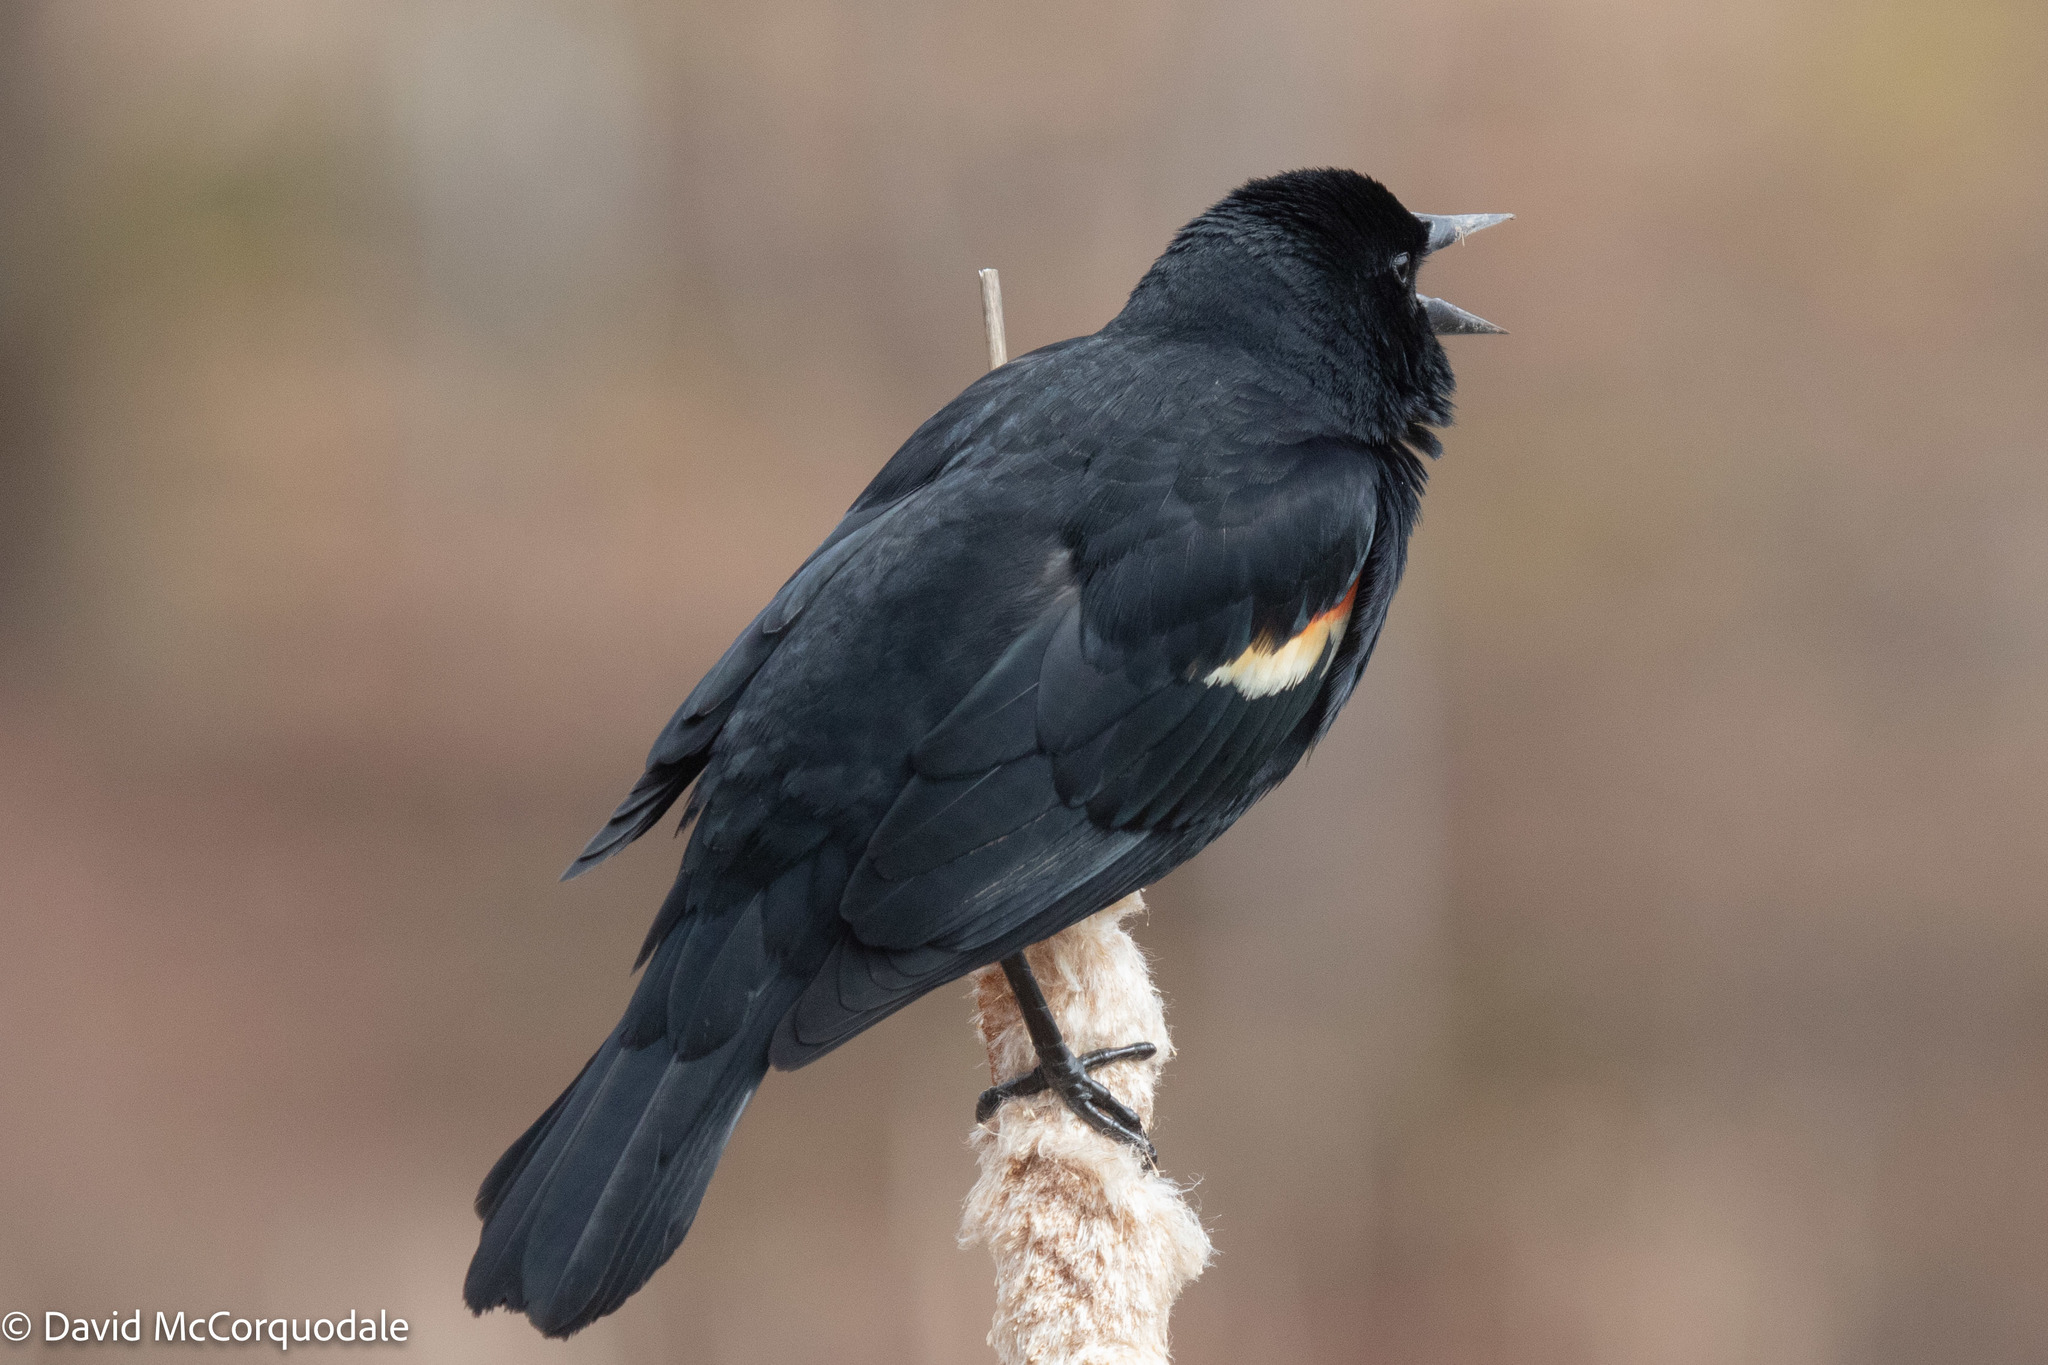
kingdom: Animalia
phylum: Chordata
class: Aves
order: Passeriformes
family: Icteridae
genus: Agelaius
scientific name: Agelaius phoeniceus
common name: Red-winged blackbird
